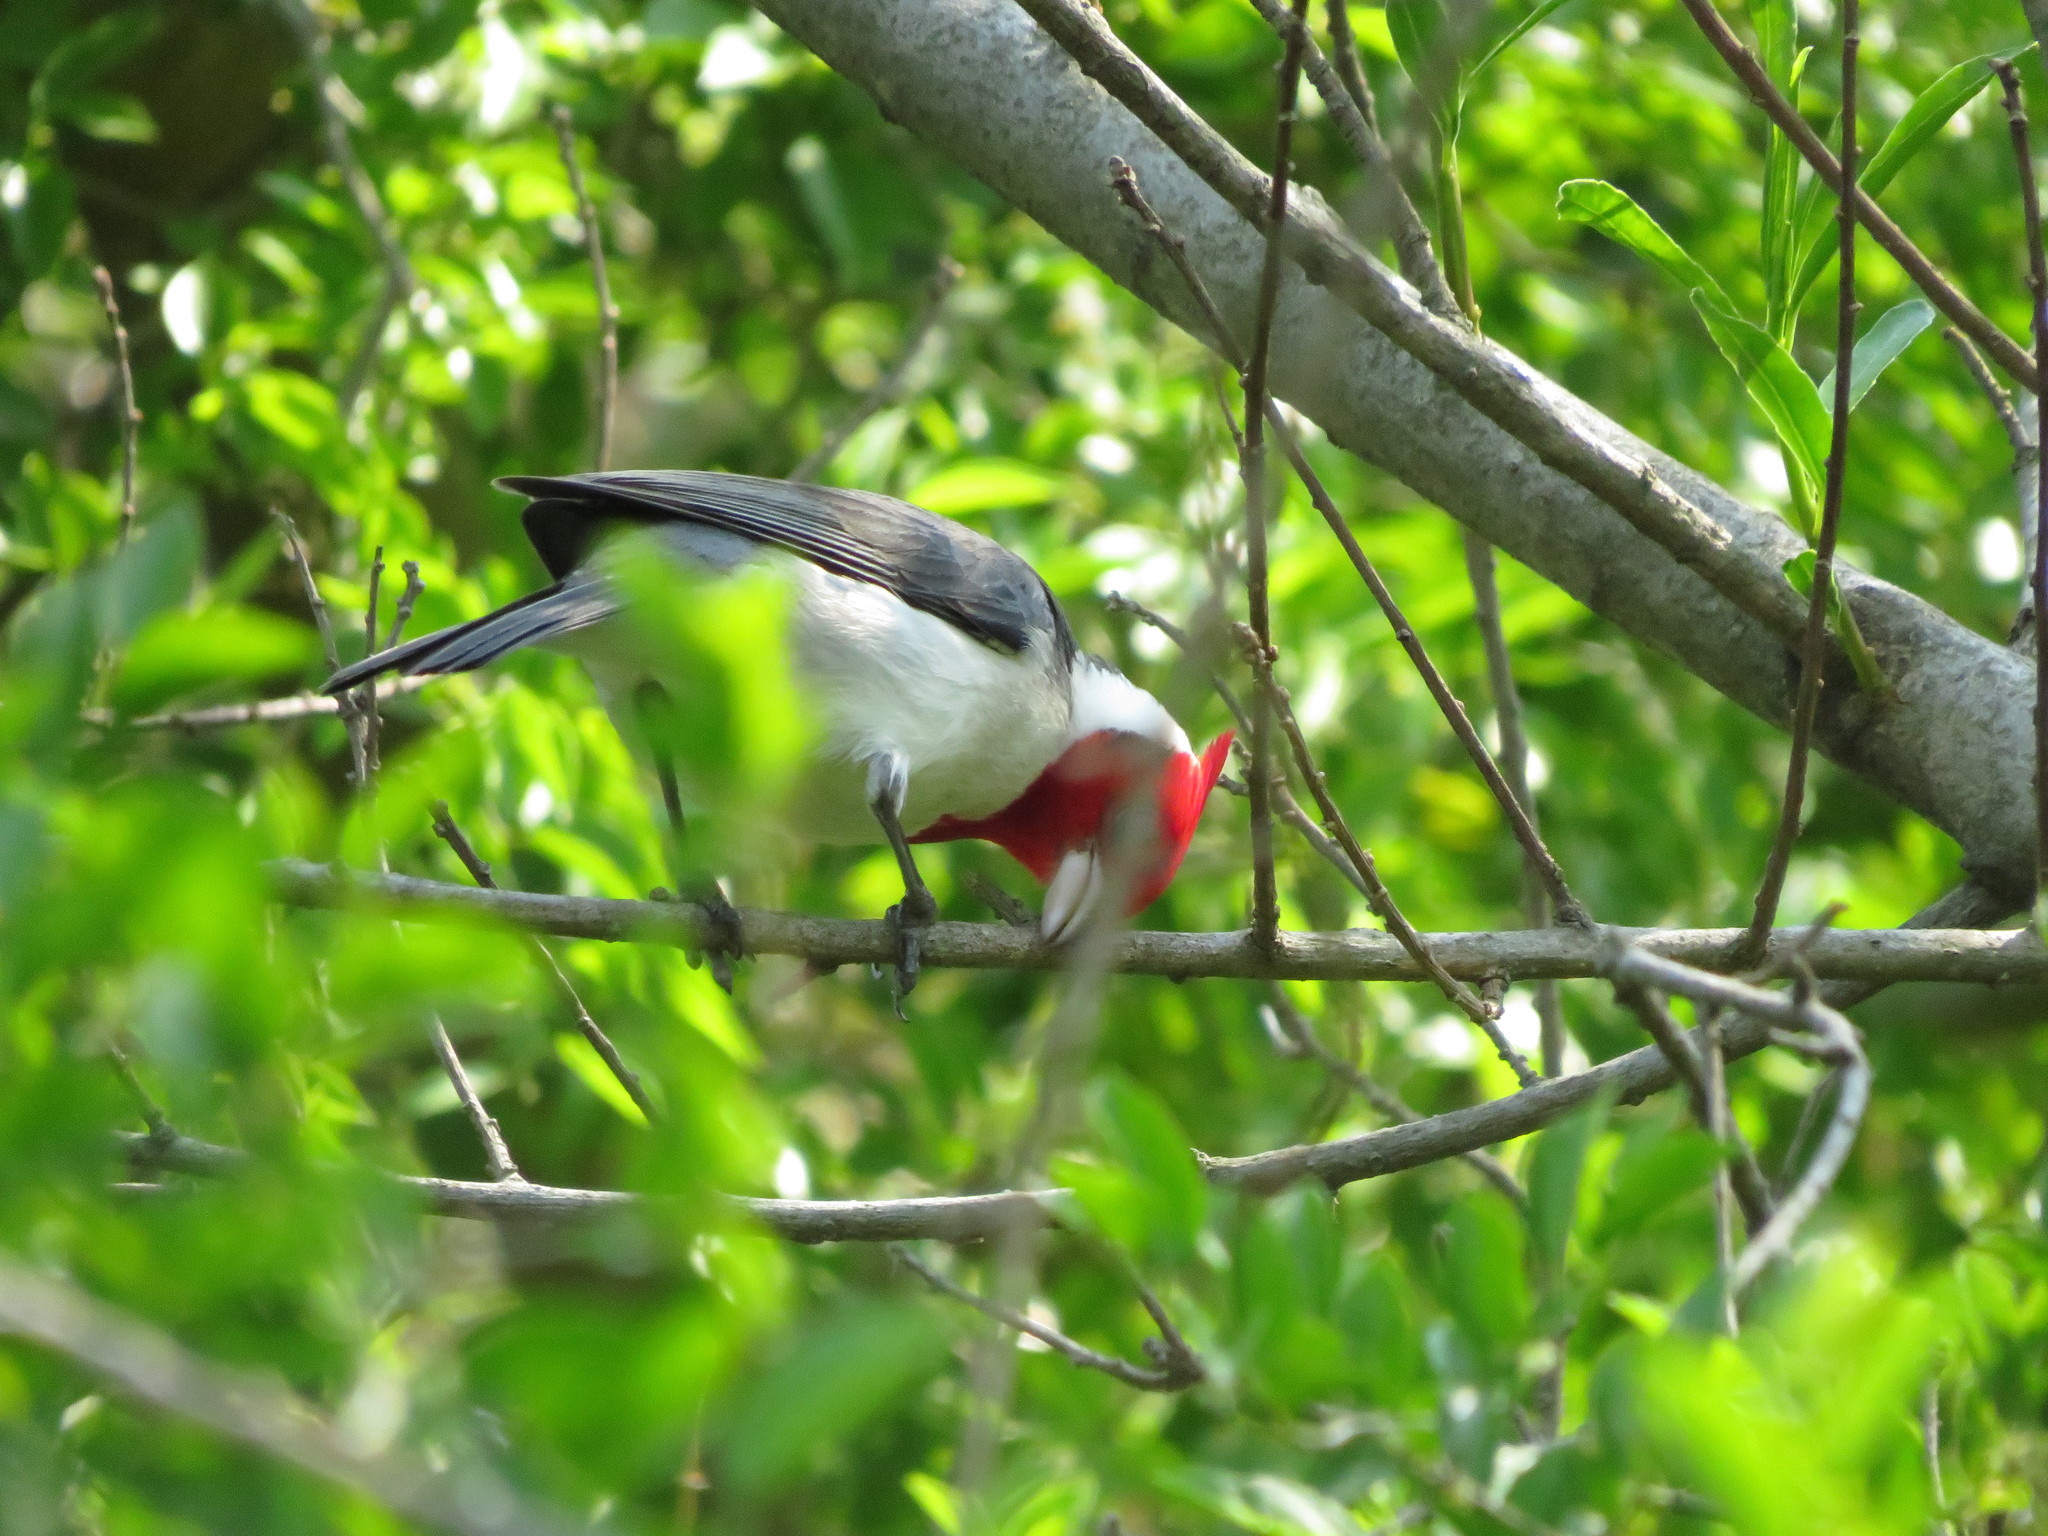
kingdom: Animalia
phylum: Chordata
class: Aves
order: Passeriformes
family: Thraupidae
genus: Paroaria
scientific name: Paroaria coronata
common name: Red-crested cardinal
